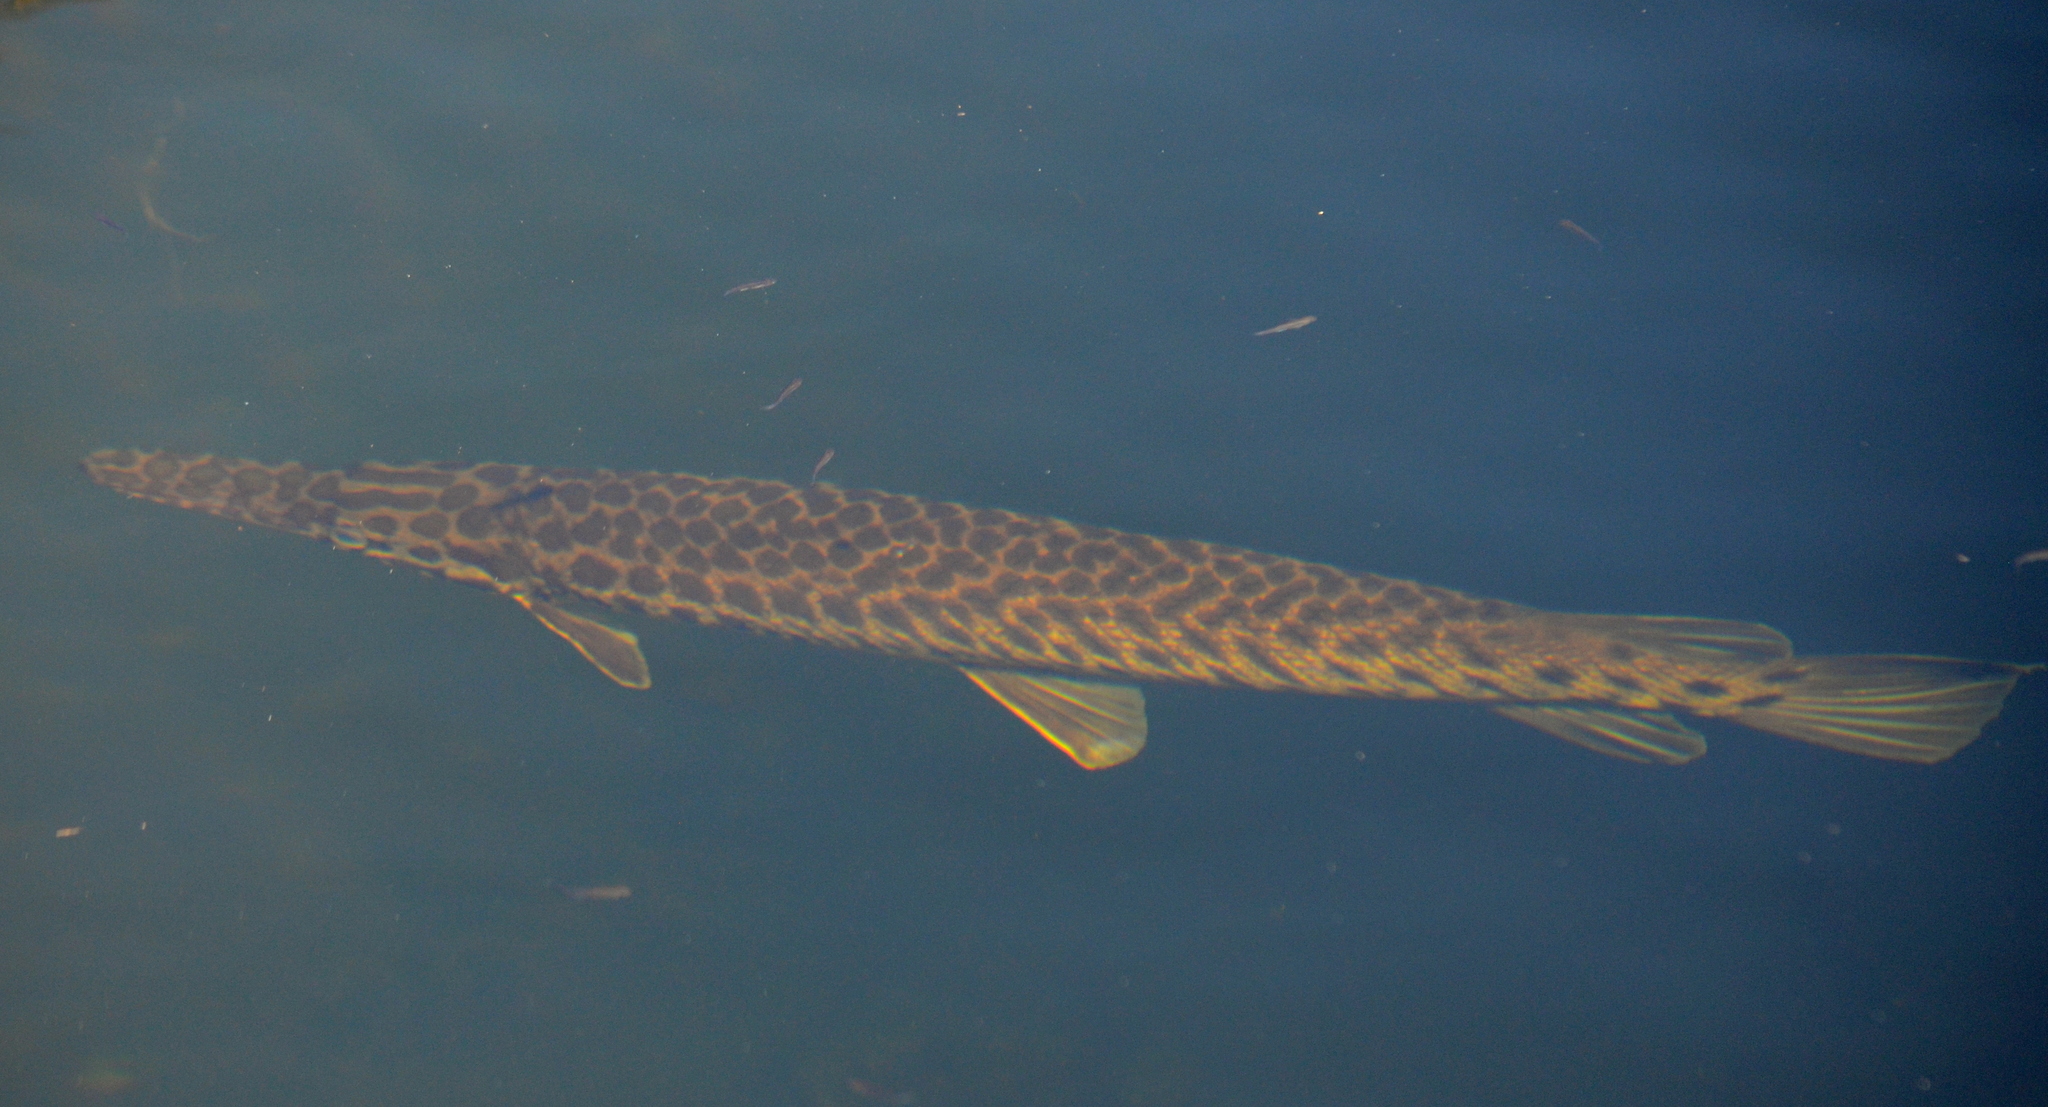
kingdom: Animalia
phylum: Chordata
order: Lepisosteiformes
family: Lepisosteidae
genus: Lepisosteus
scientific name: Lepisosteus platyrhincus
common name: Florida gar
